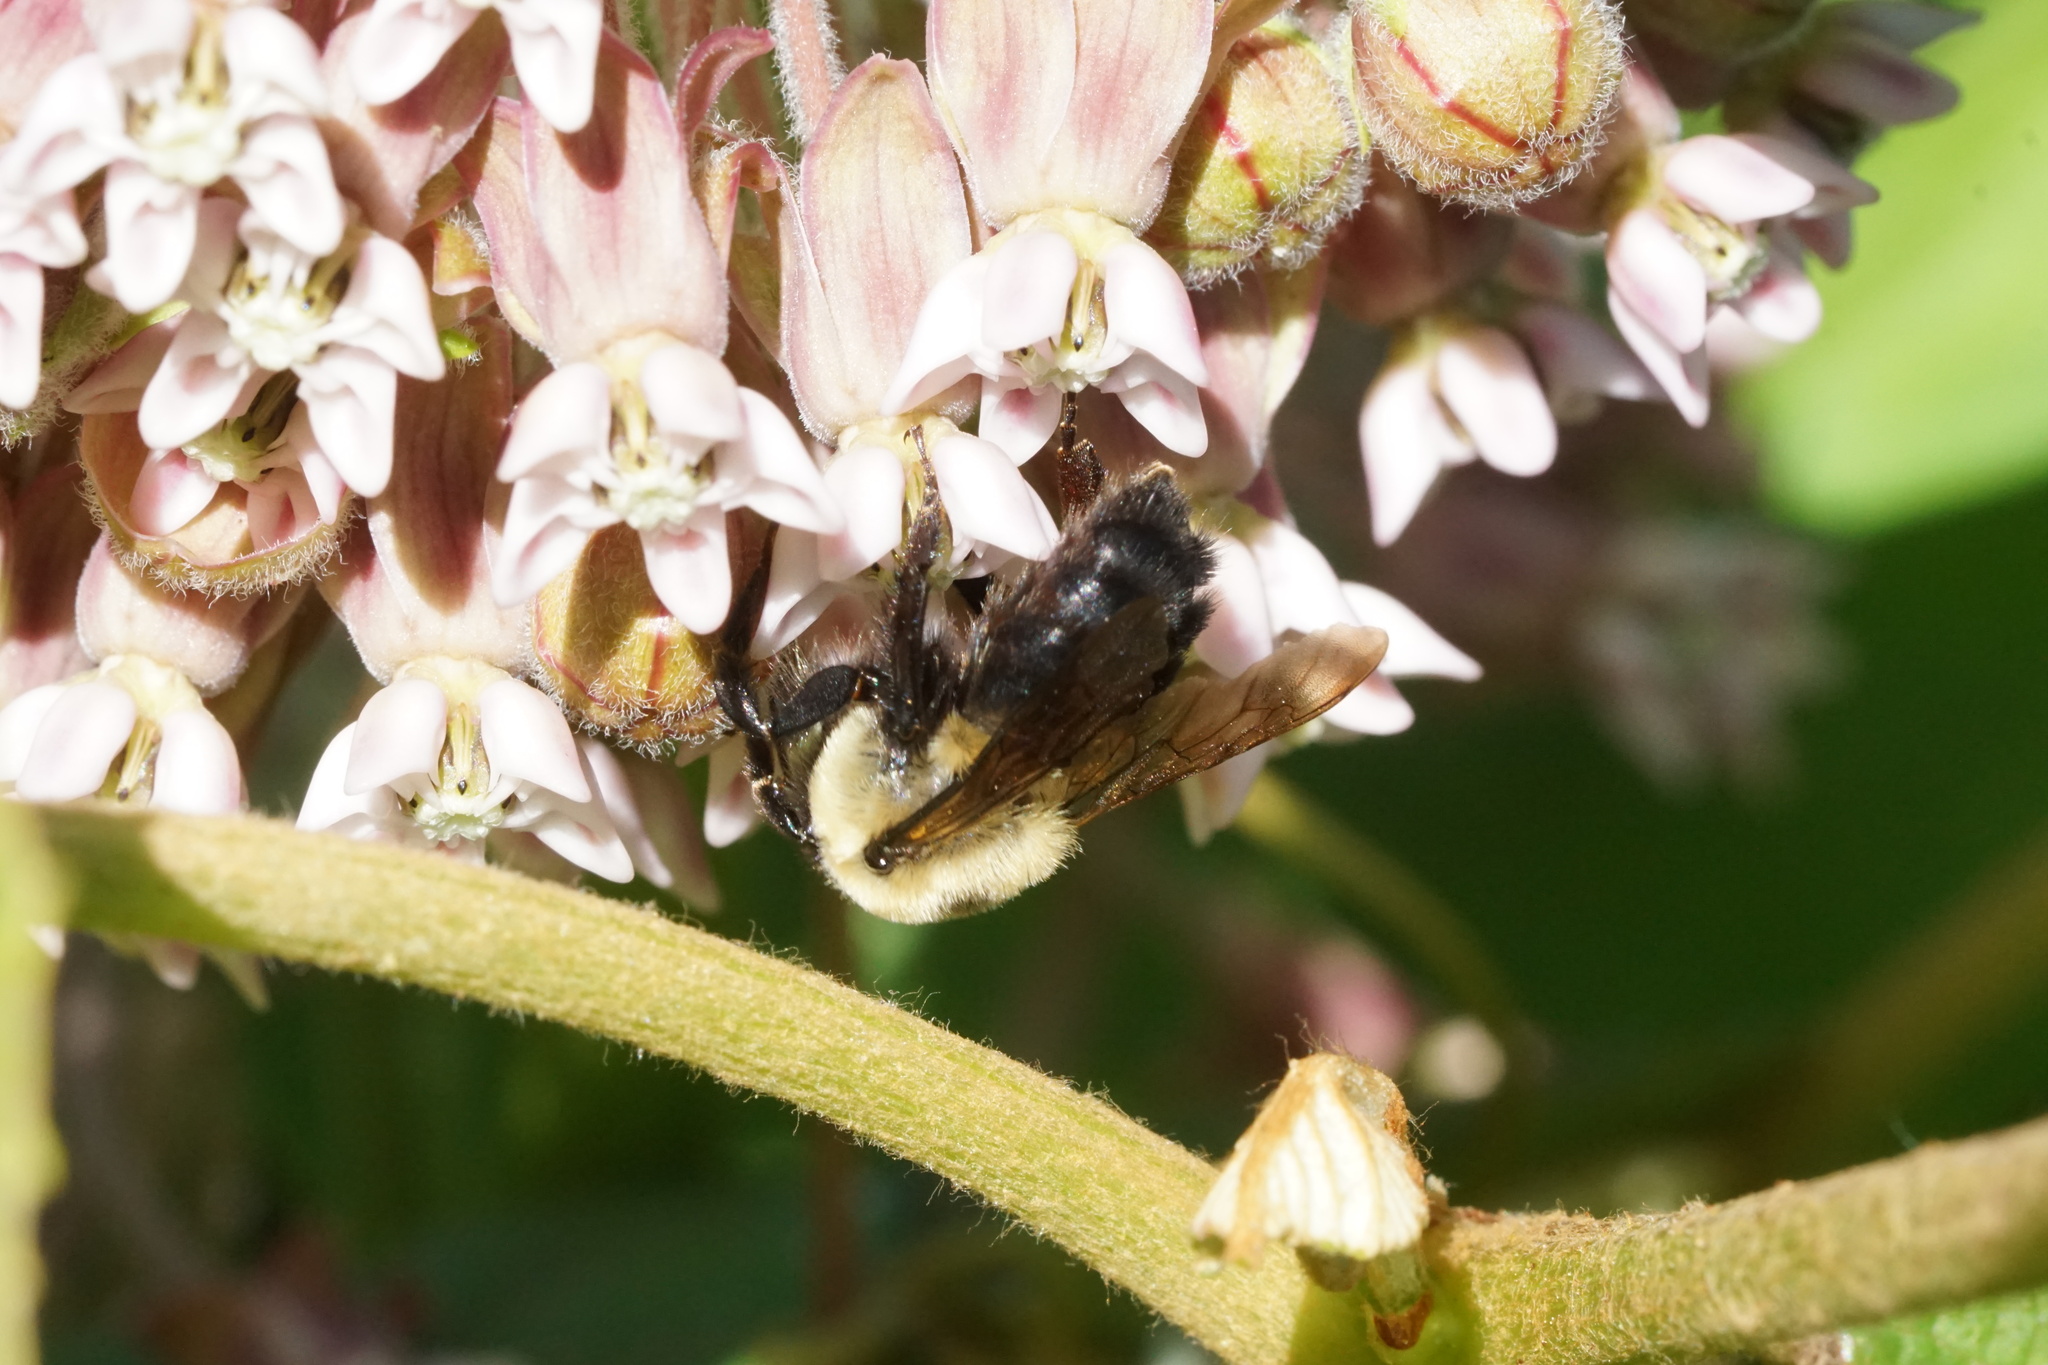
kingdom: Animalia
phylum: Arthropoda
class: Insecta
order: Hymenoptera
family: Apidae
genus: Bombus
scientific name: Bombus griseocollis
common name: Brown-belted bumble bee
